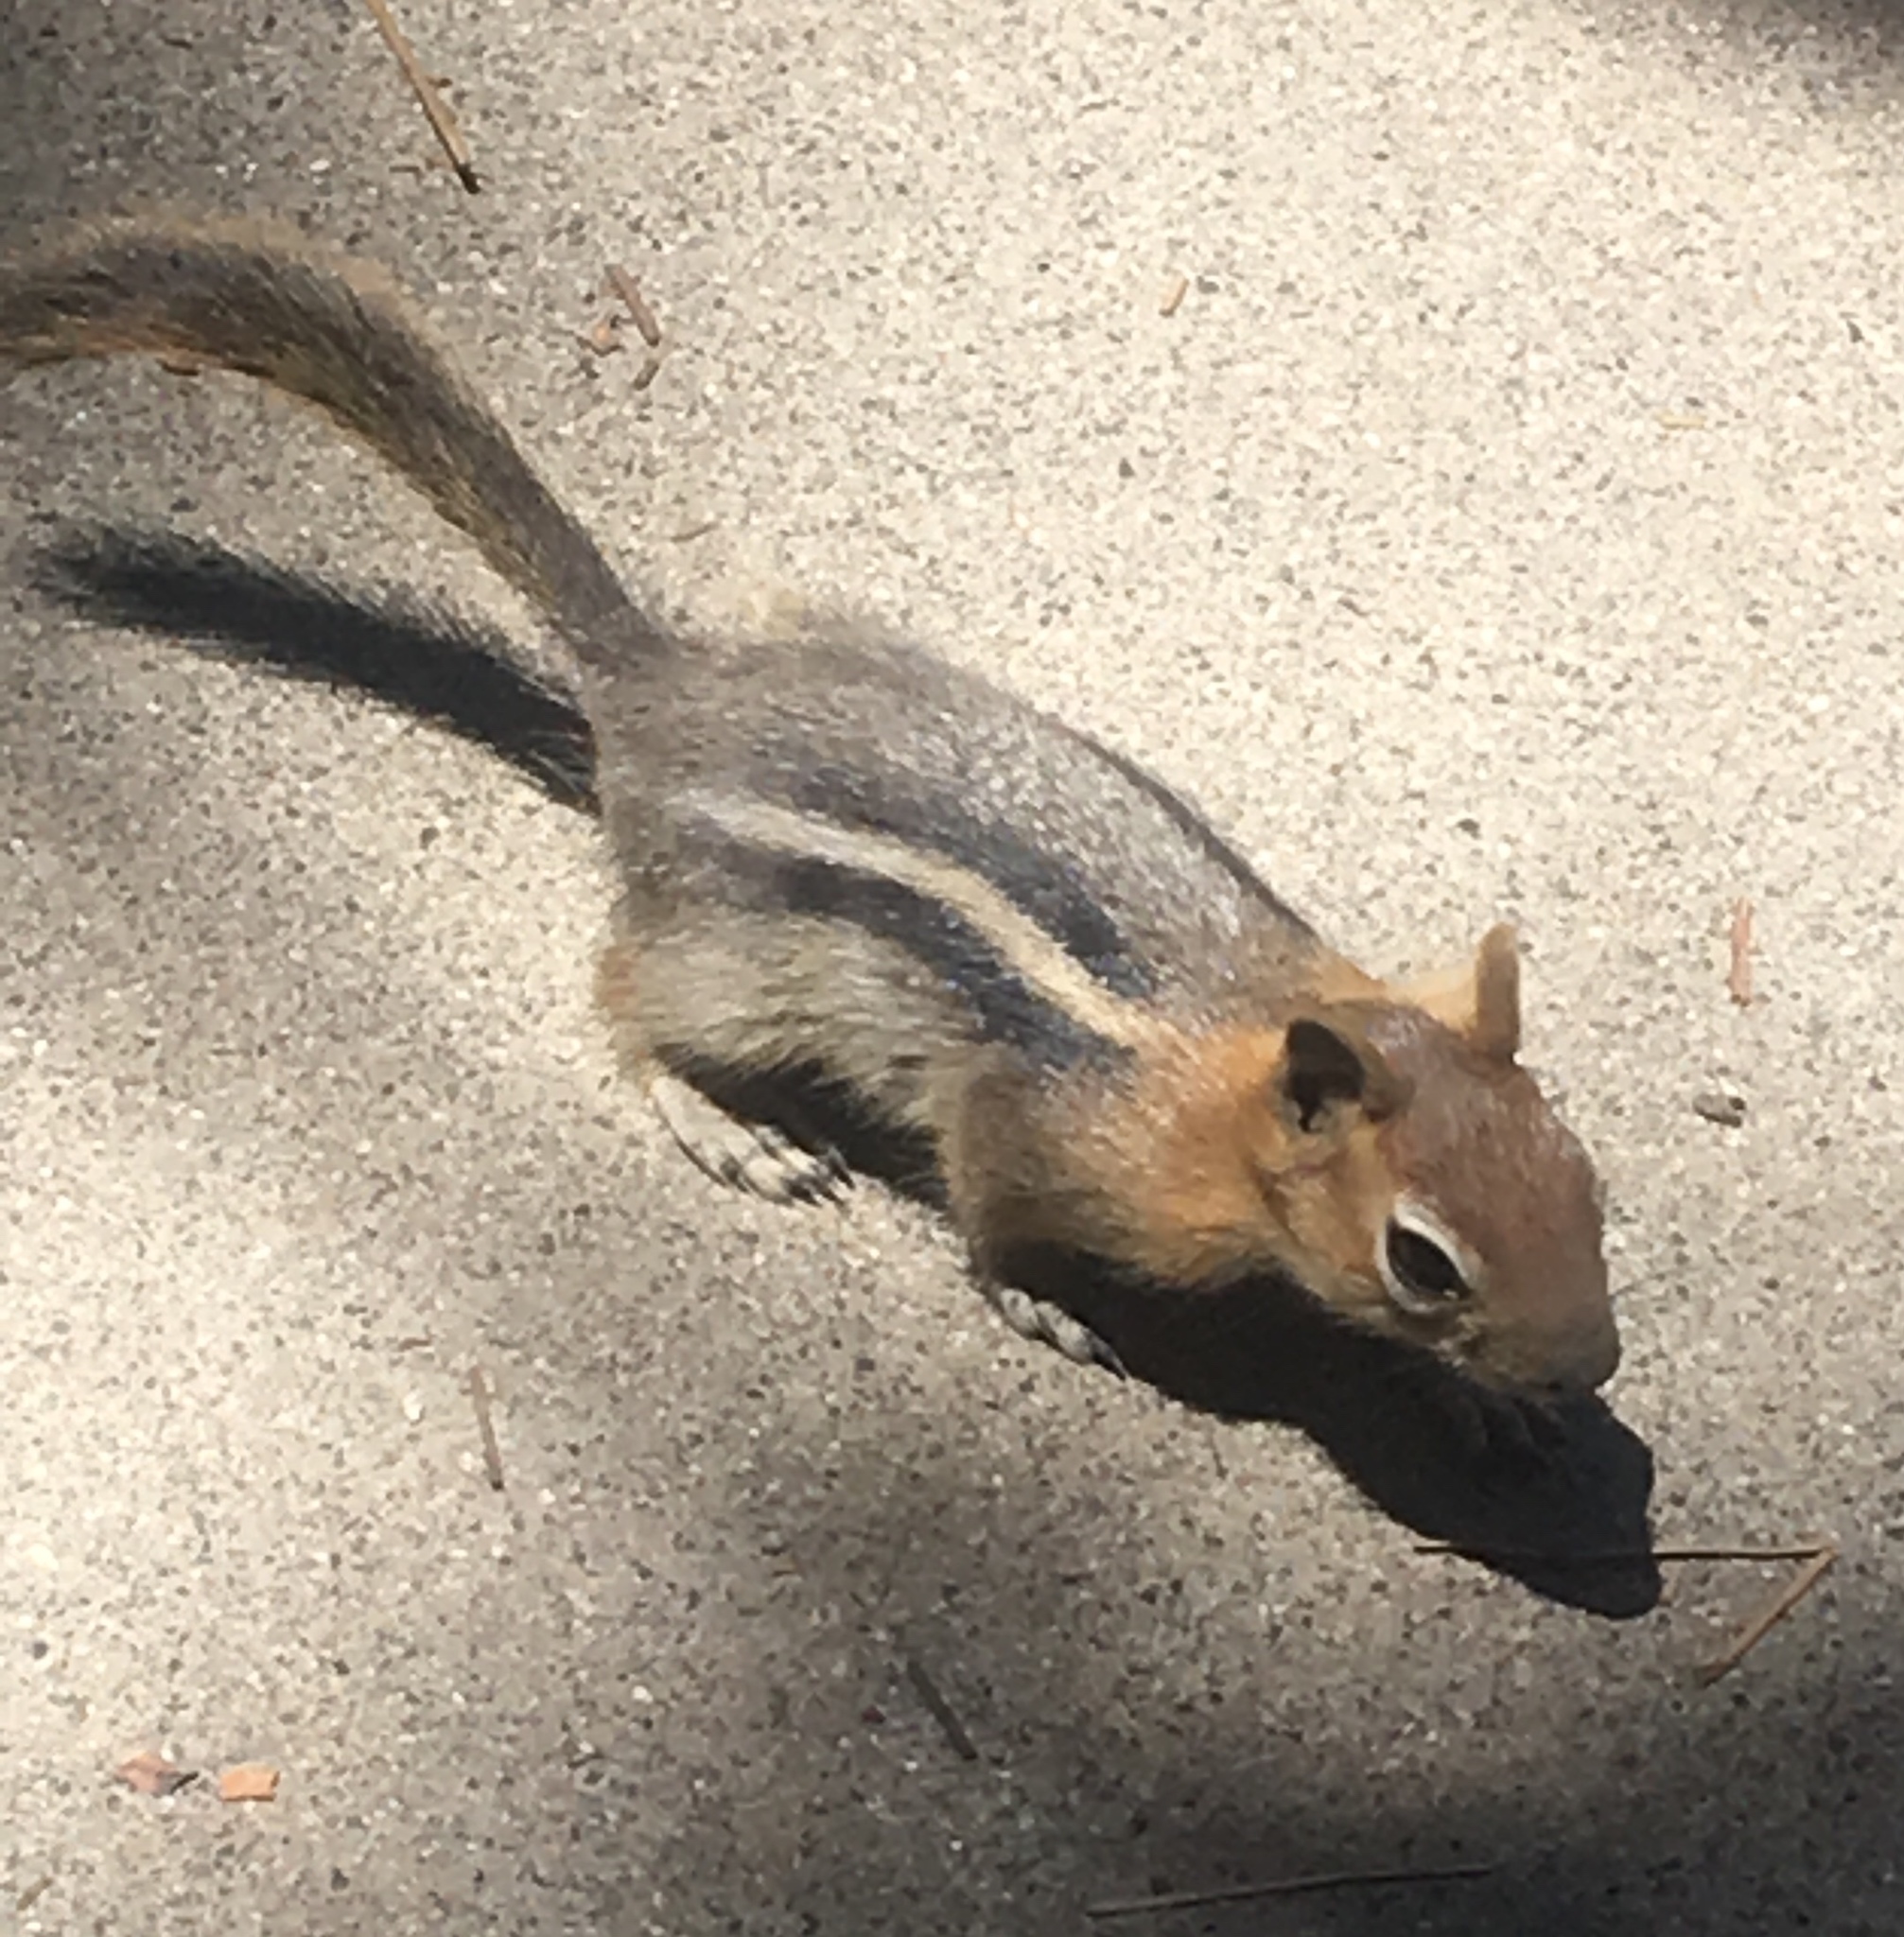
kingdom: Animalia
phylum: Chordata
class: Mammalia
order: Rodentia
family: Sciuridae
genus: Callospermophilus
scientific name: Callospermophilus lateralis
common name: Golden-mantled ground squirrel
